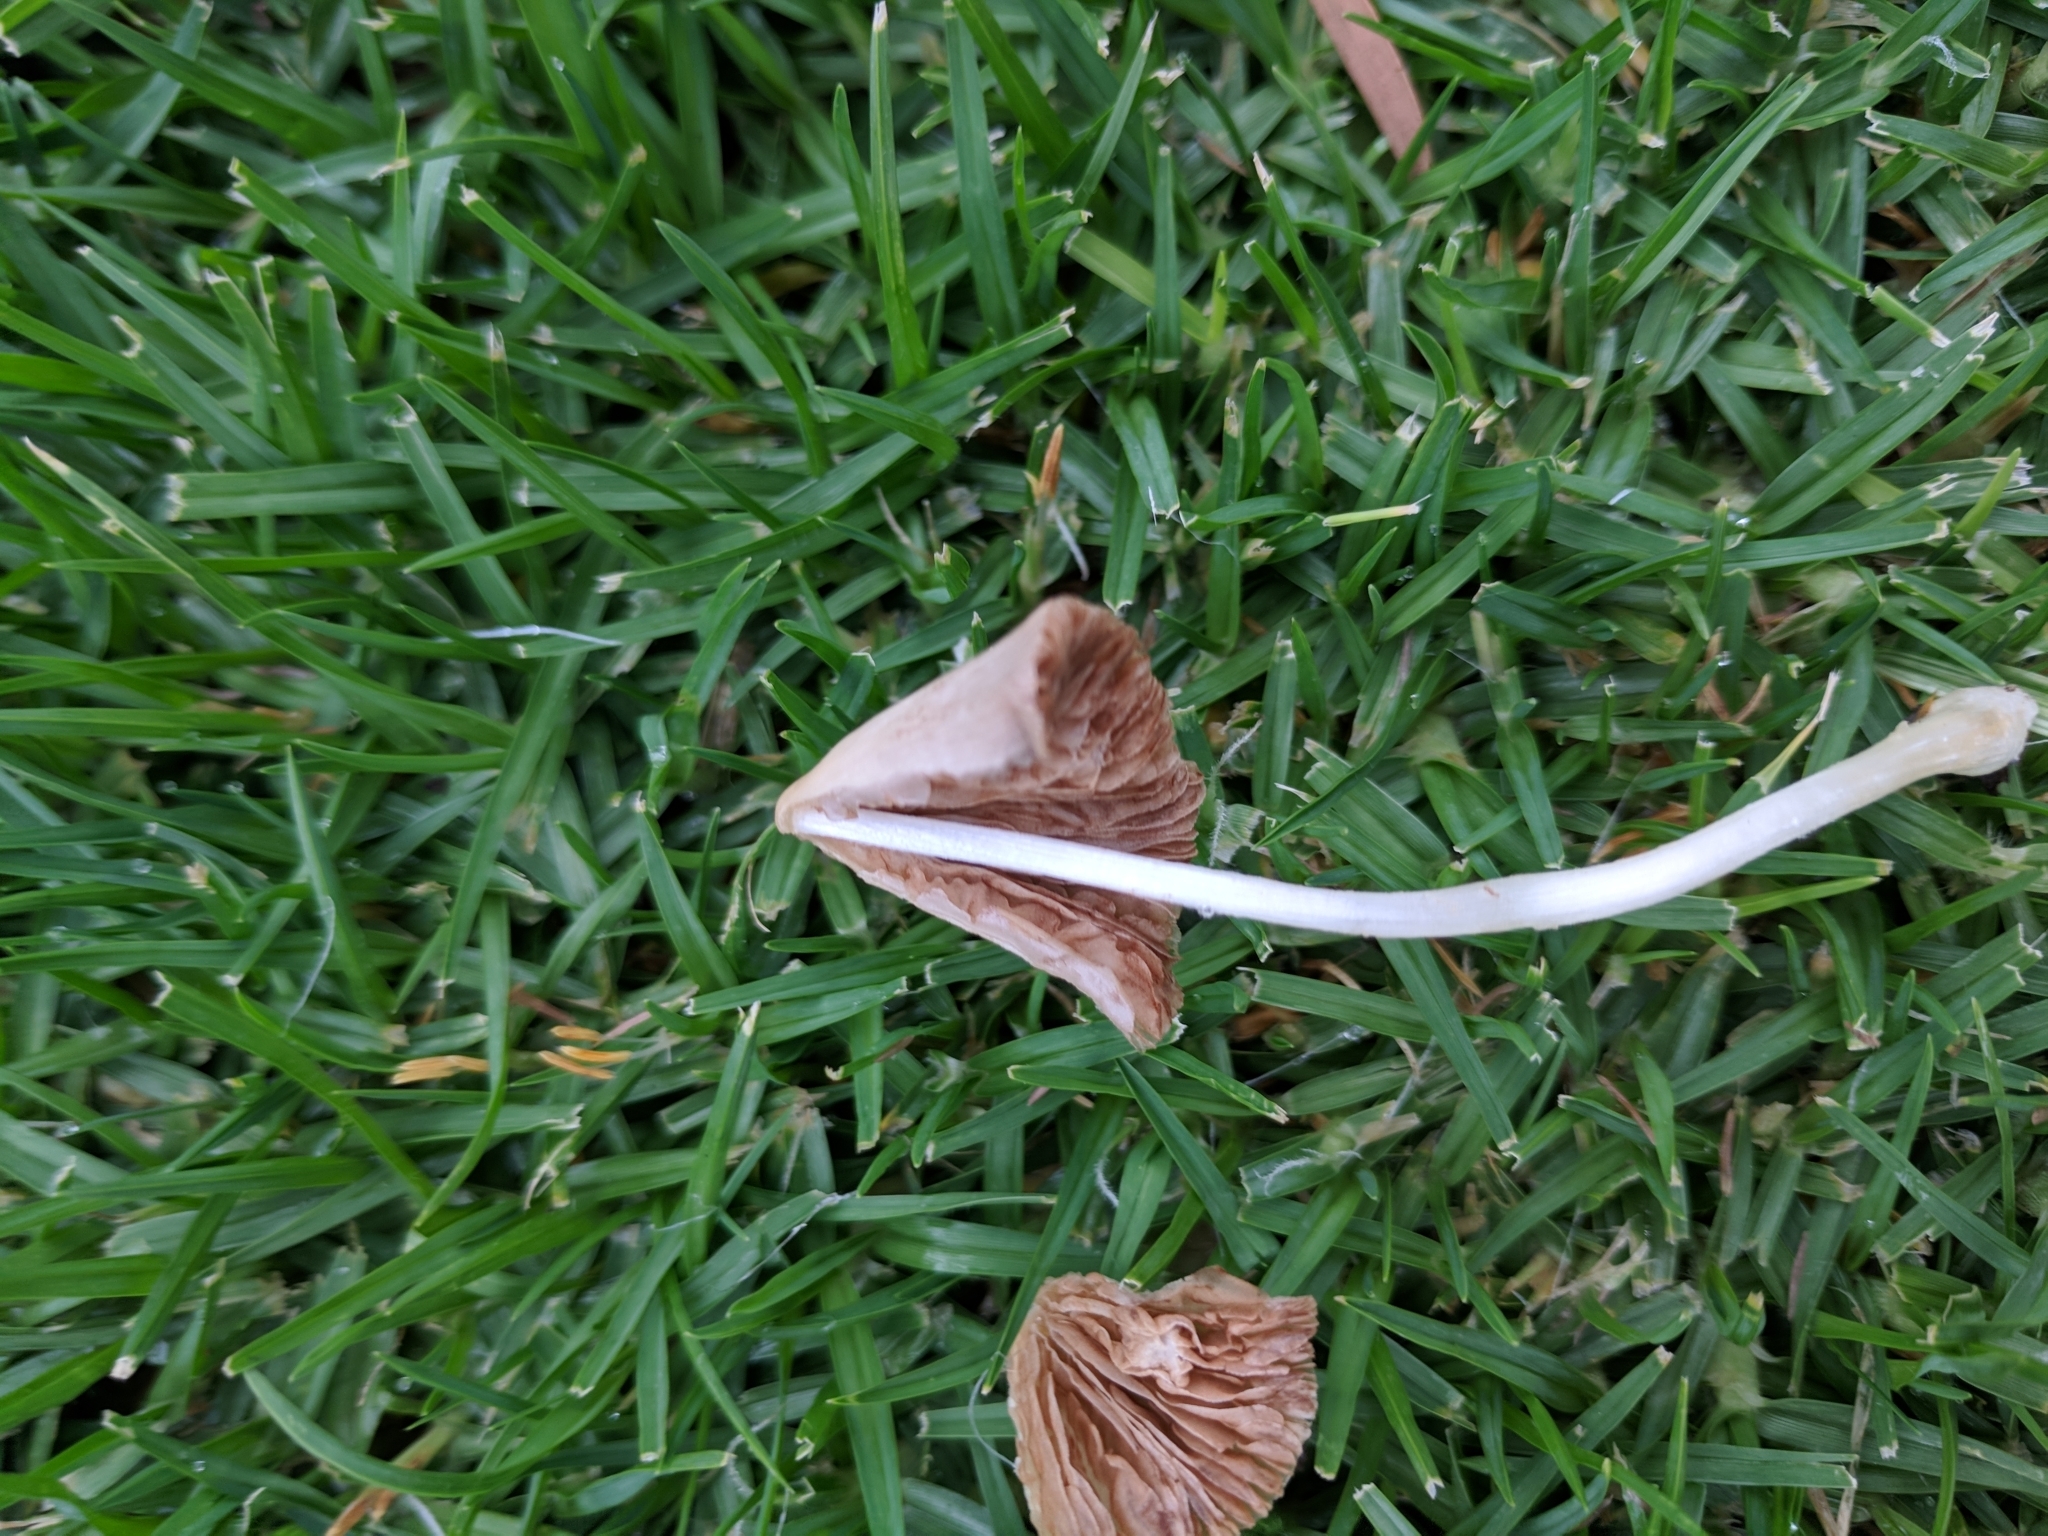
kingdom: Fungi
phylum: Basidiomycota
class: Agaricomycetes
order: Agaricales
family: Bolbitiaceae
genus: Conocybe
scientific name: Conocybe apala
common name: Milky conecap
